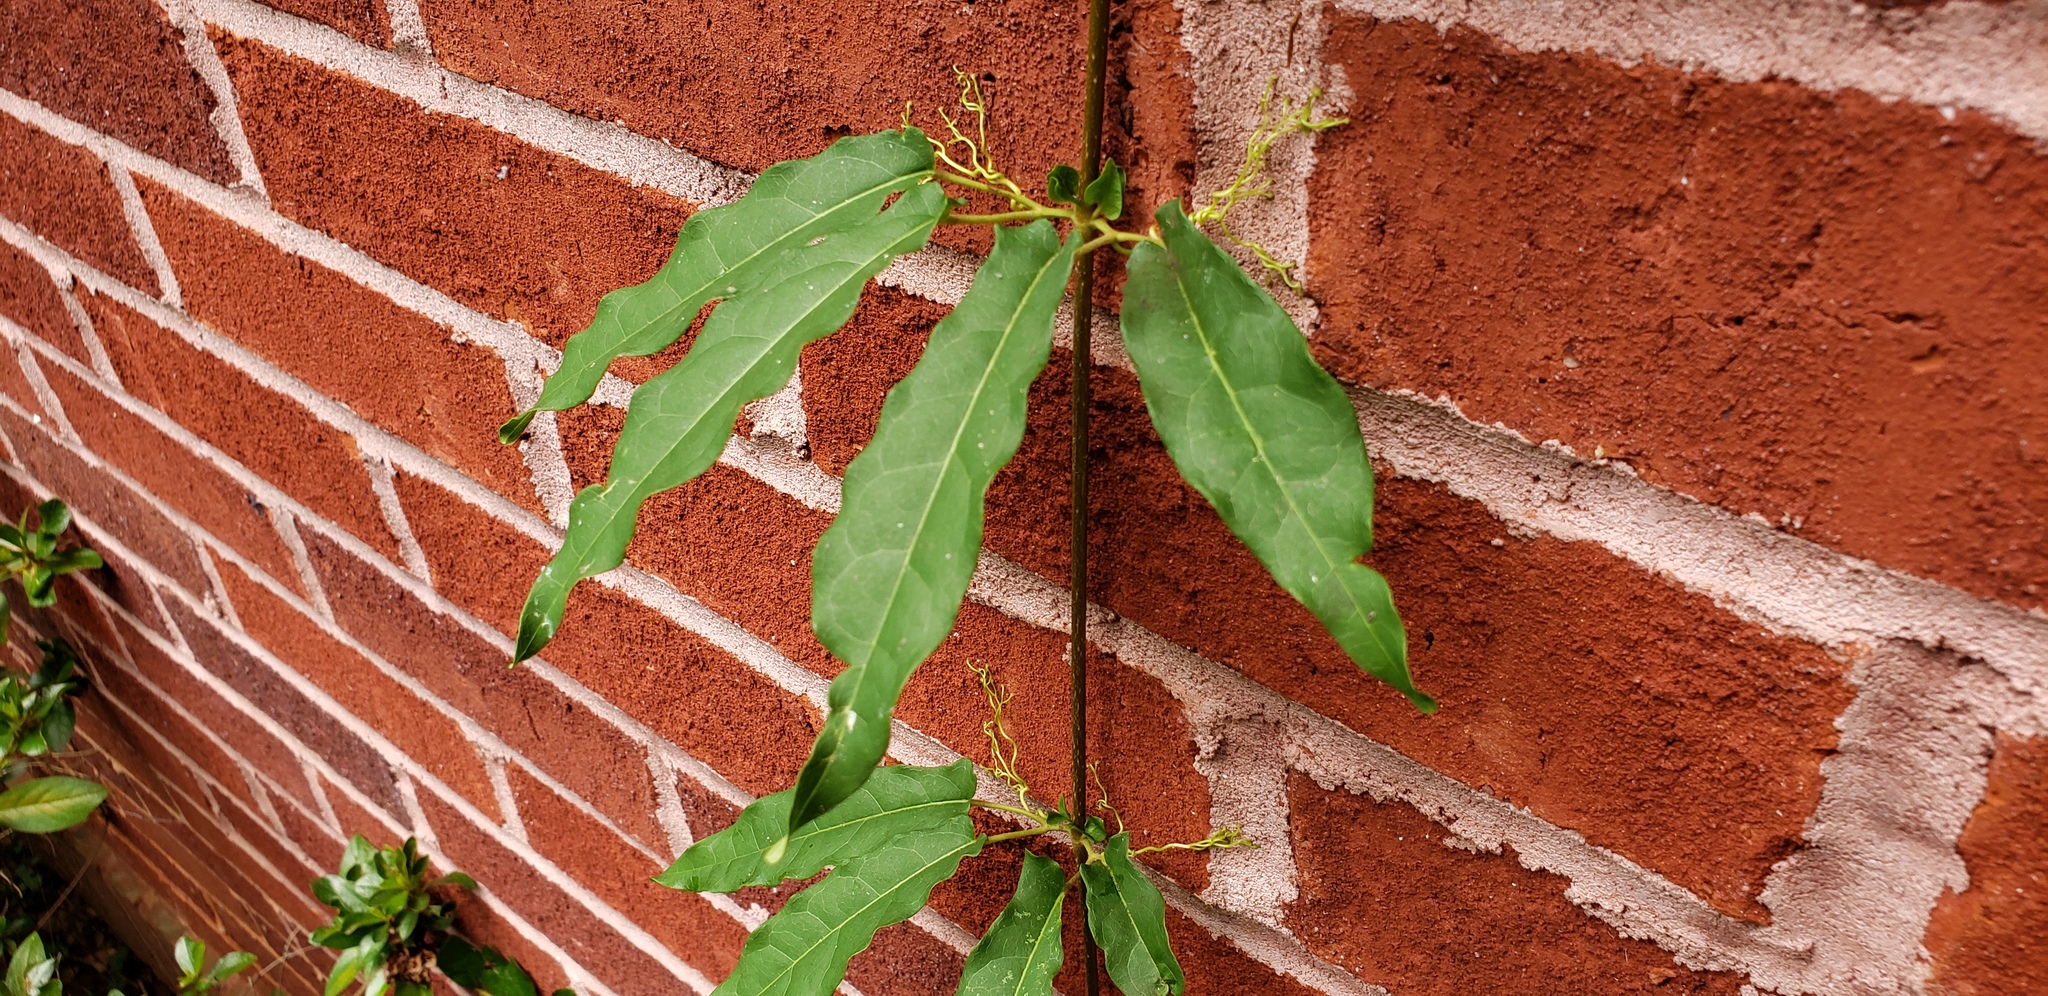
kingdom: Plantae
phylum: Tracheophyta
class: Magnoliopsida
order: Lamiales
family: Bignoniaceae
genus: Bignonia
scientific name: Bignonia capreolata
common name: Crossvine
